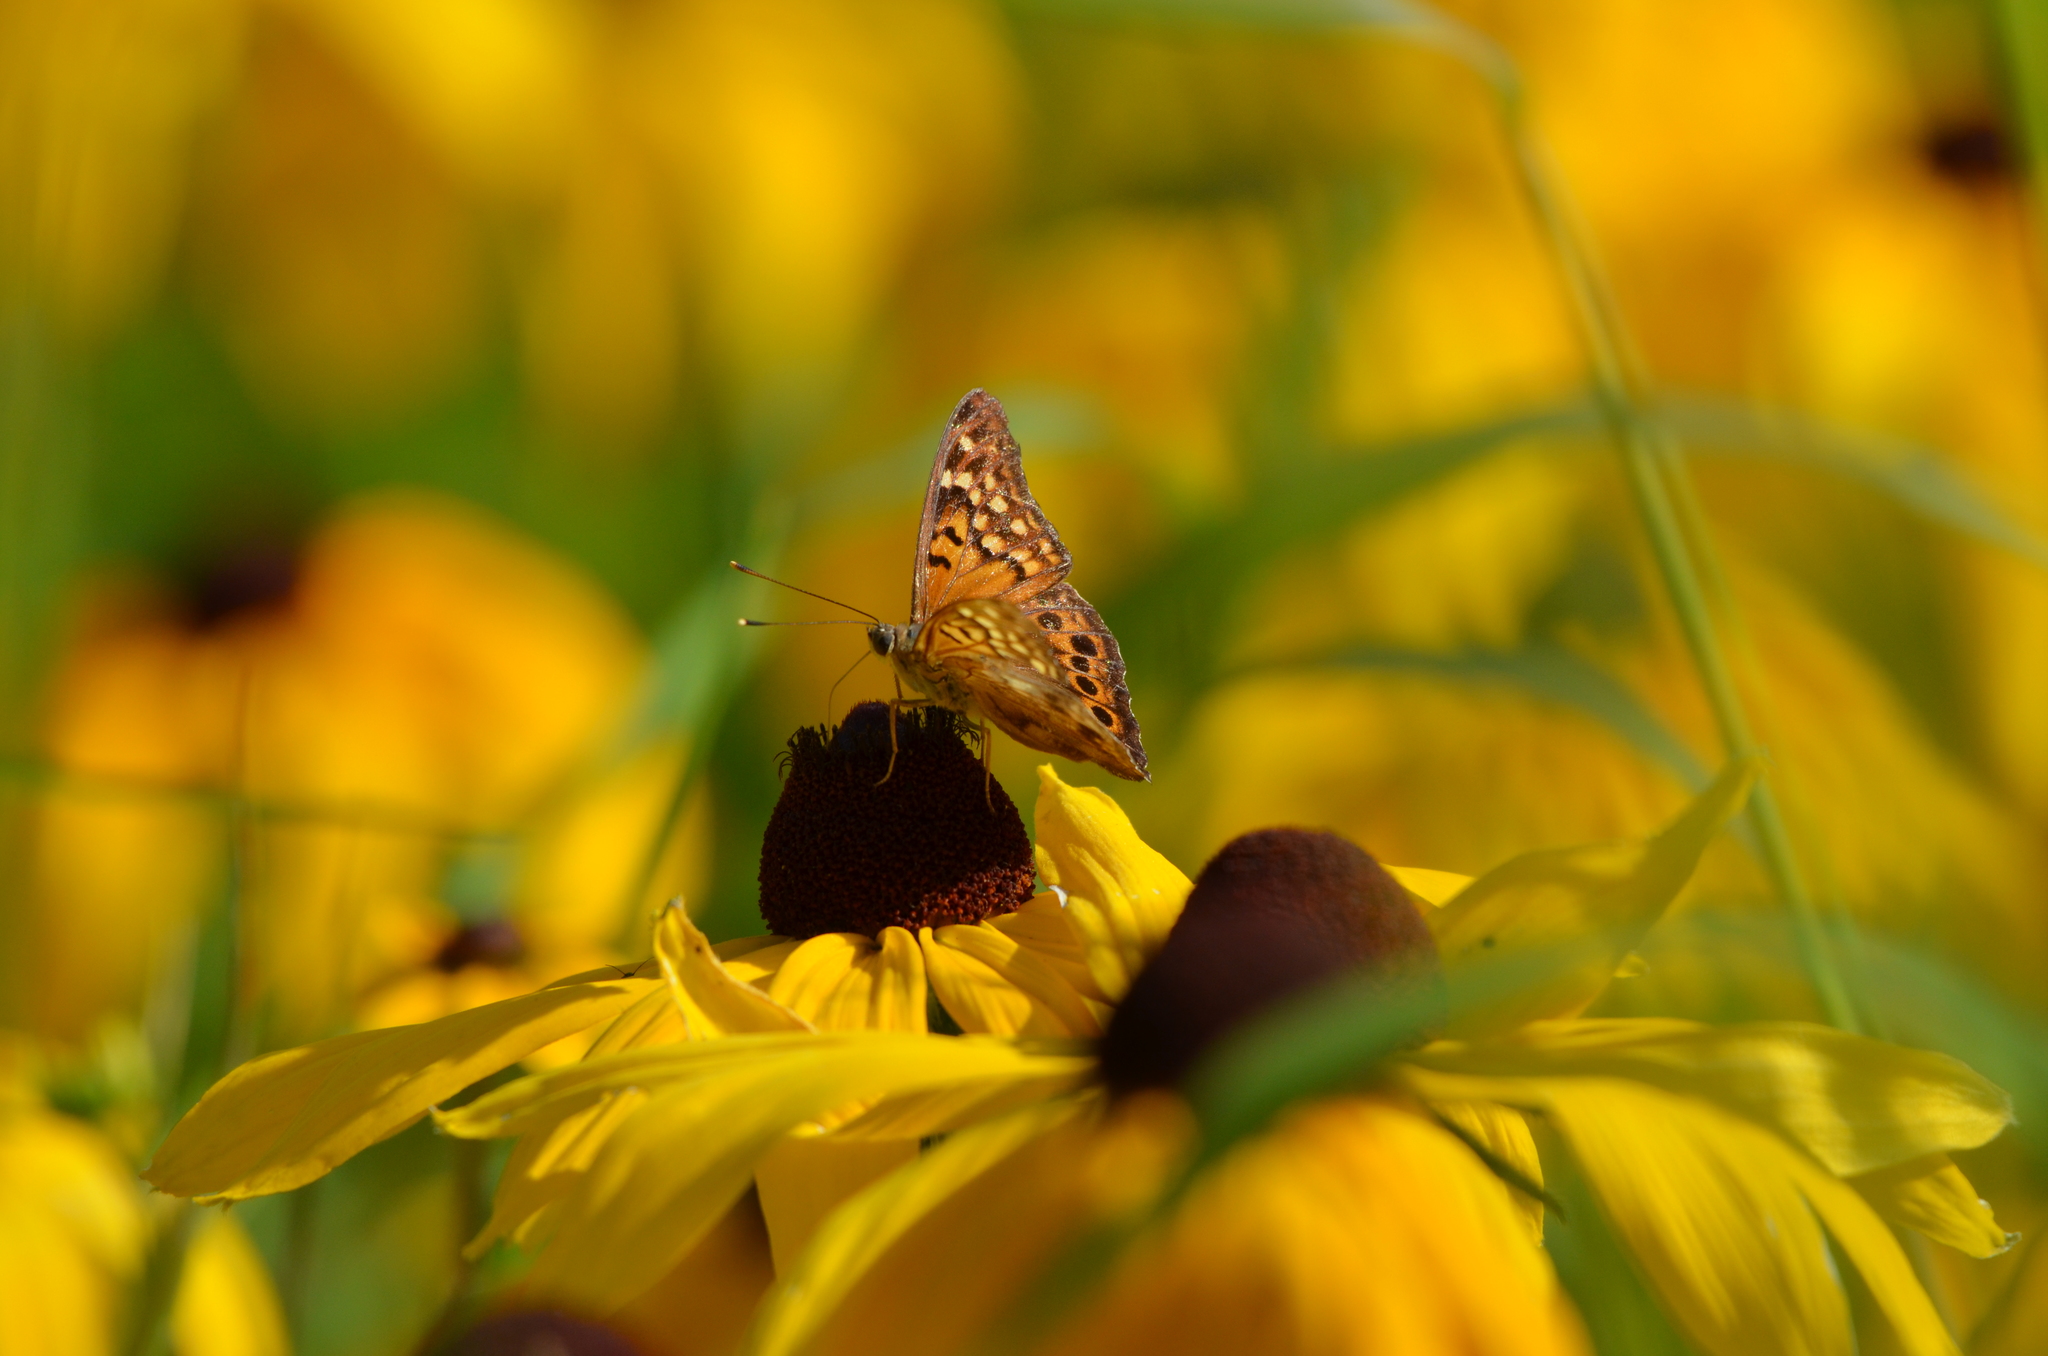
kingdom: Animalia
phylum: Arthropoda
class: Insecta
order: Lepidoptera
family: Nymphalidae
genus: Asterocampa
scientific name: Asterocampa clyton
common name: Tawny emperor
